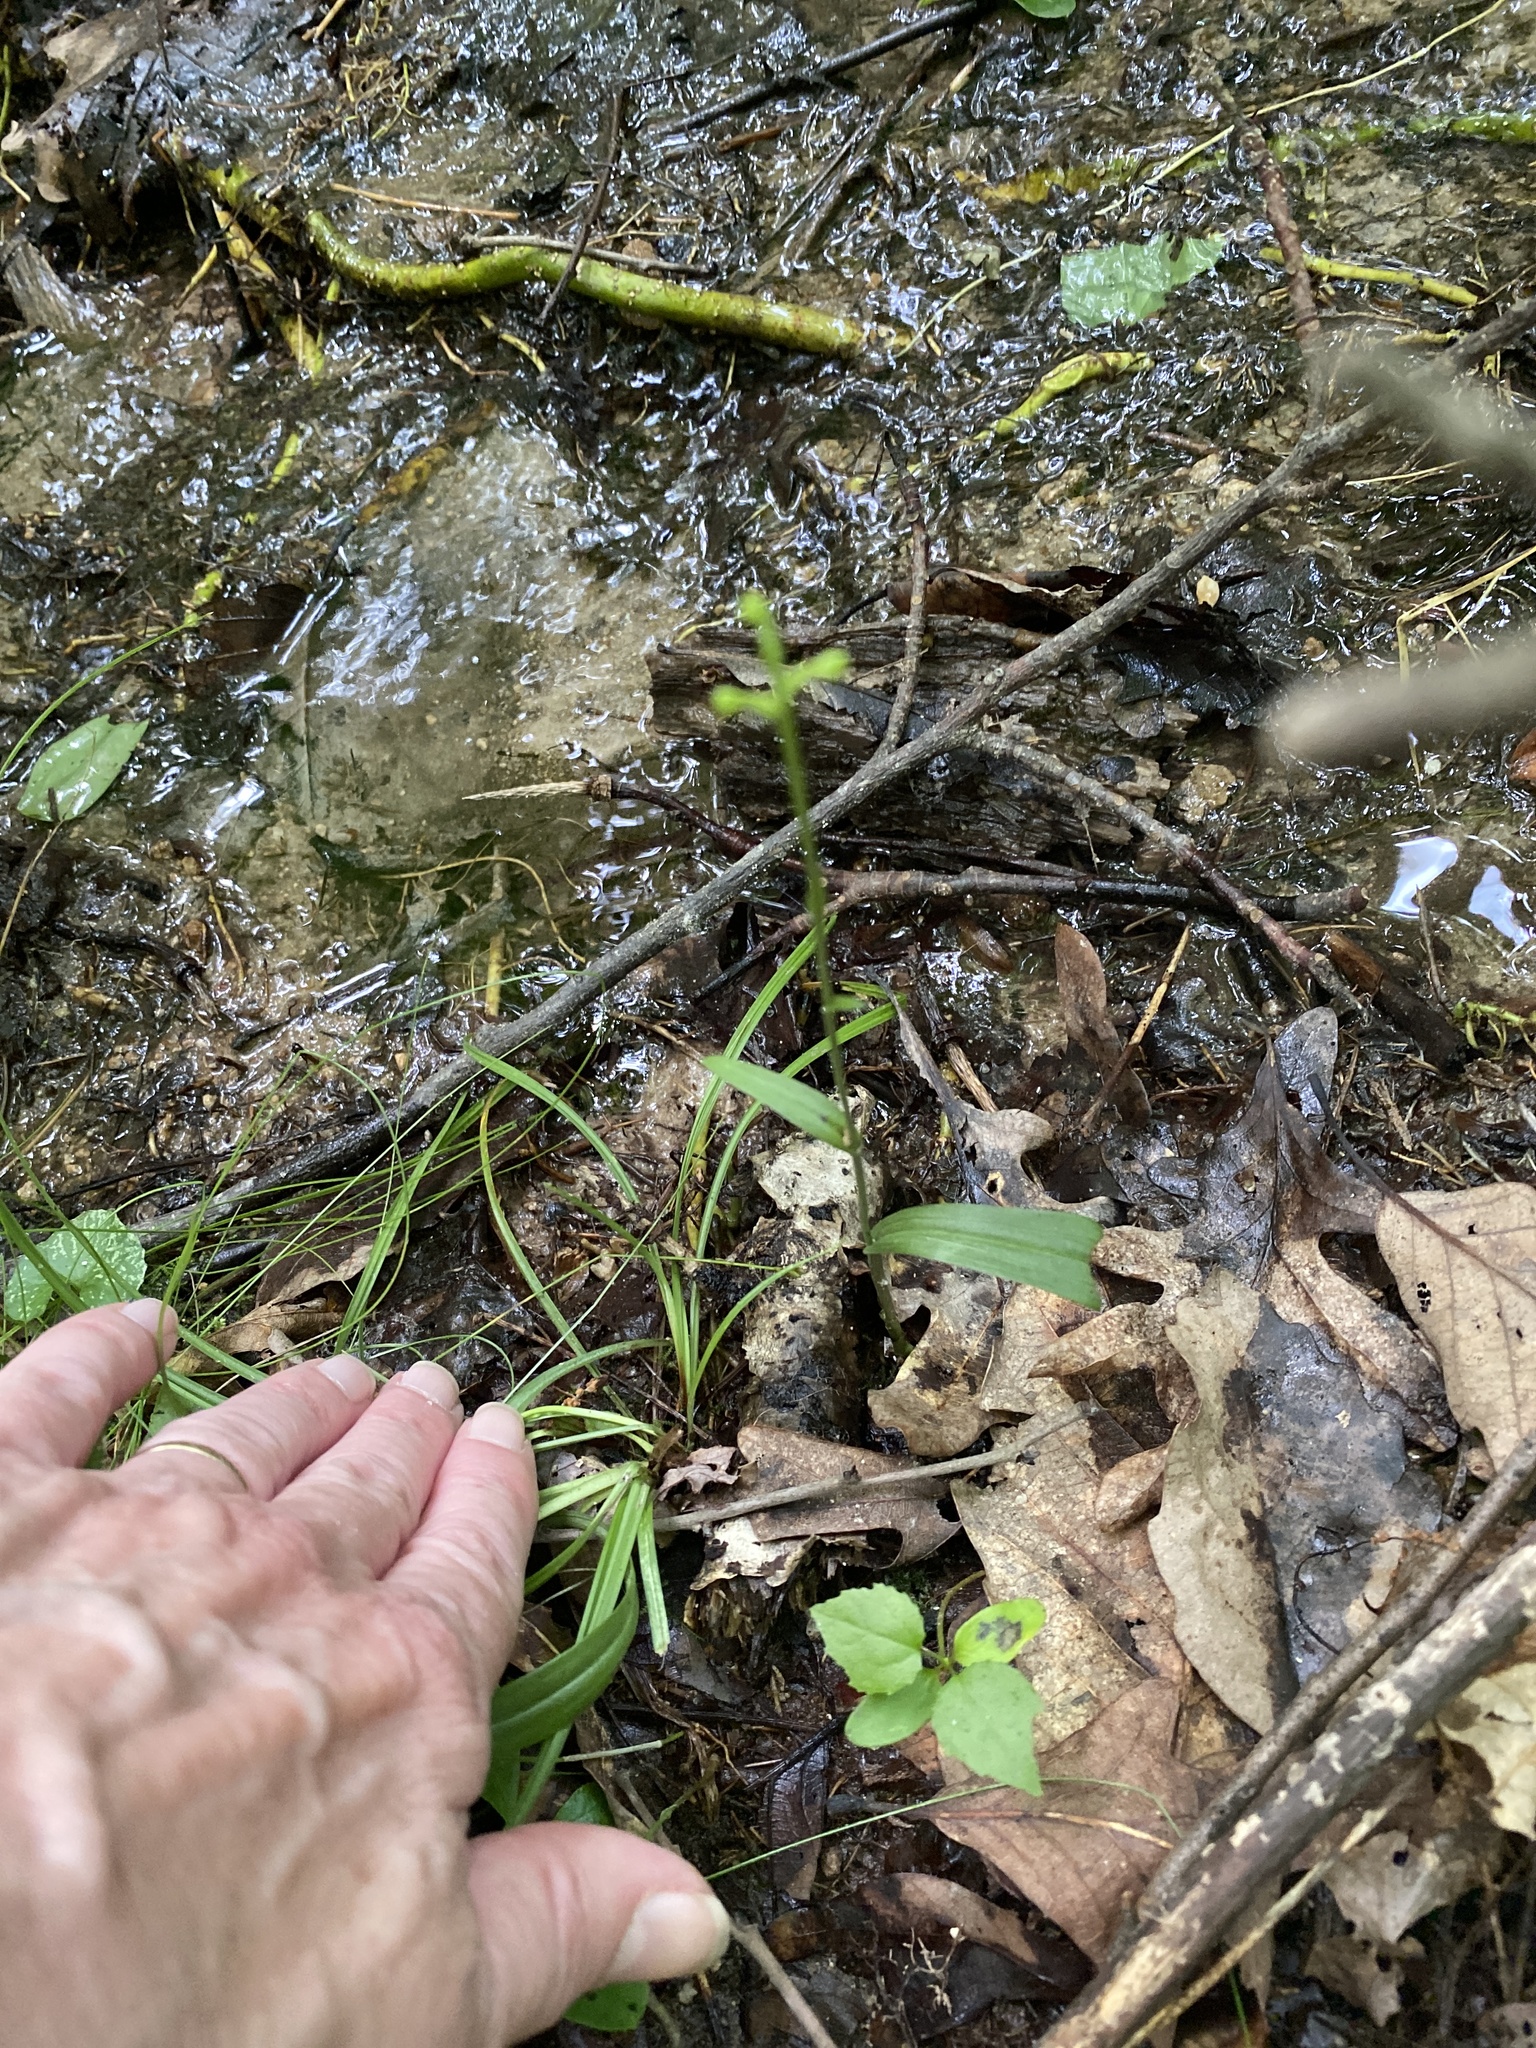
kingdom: Plantae
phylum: Tracheophyta
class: Liliopsida
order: Asparagales
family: Orchidaceae
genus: Platanthera
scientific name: Platanthera clavellata
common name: Club-spur orchid
